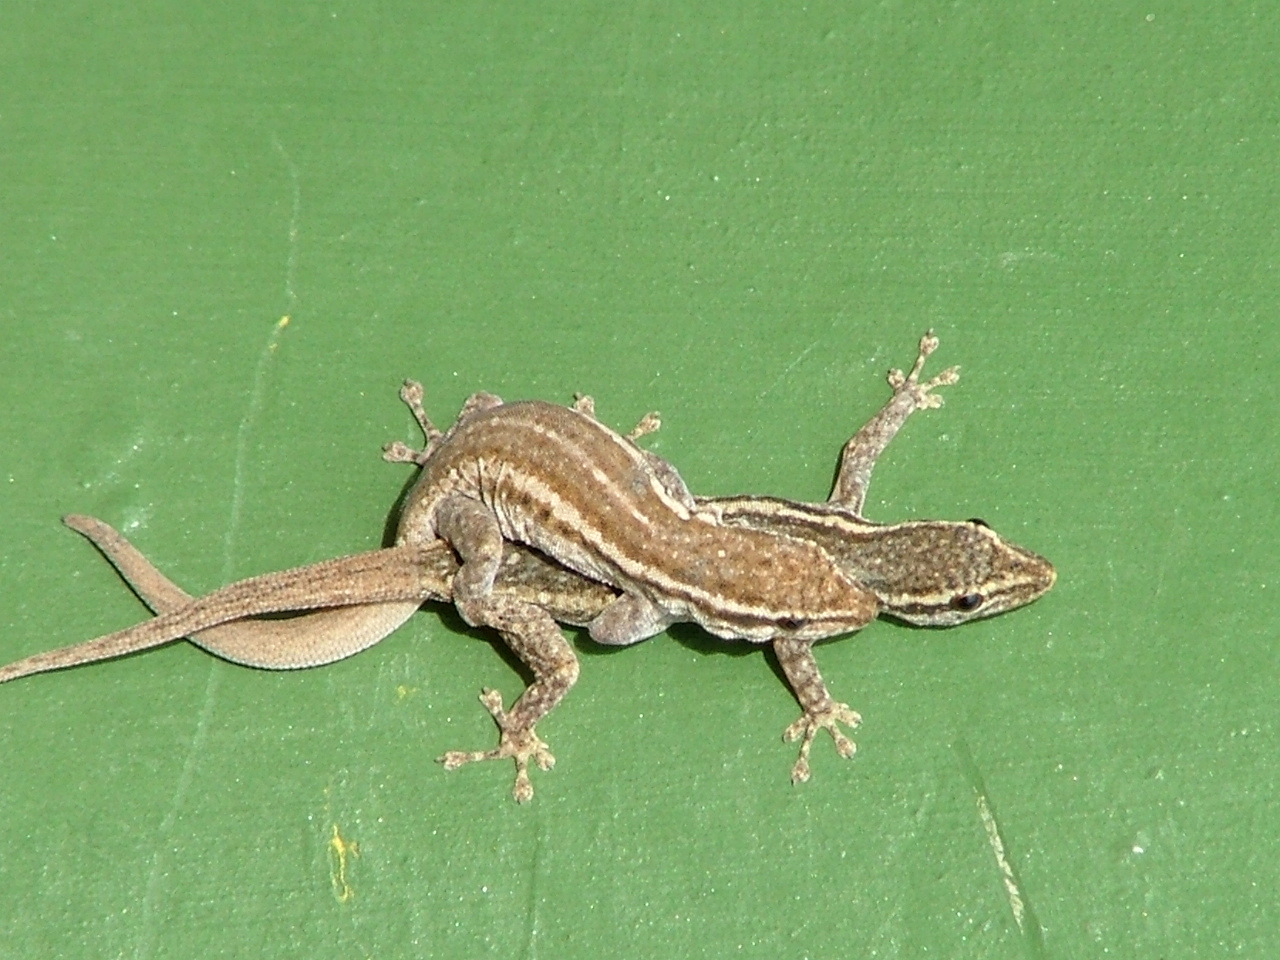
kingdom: Animalia
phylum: Chordata
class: Squamata
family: Gekkonidae
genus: Lygodactylus
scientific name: Lygodactylus capensis
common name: Cape dwarf gecko
